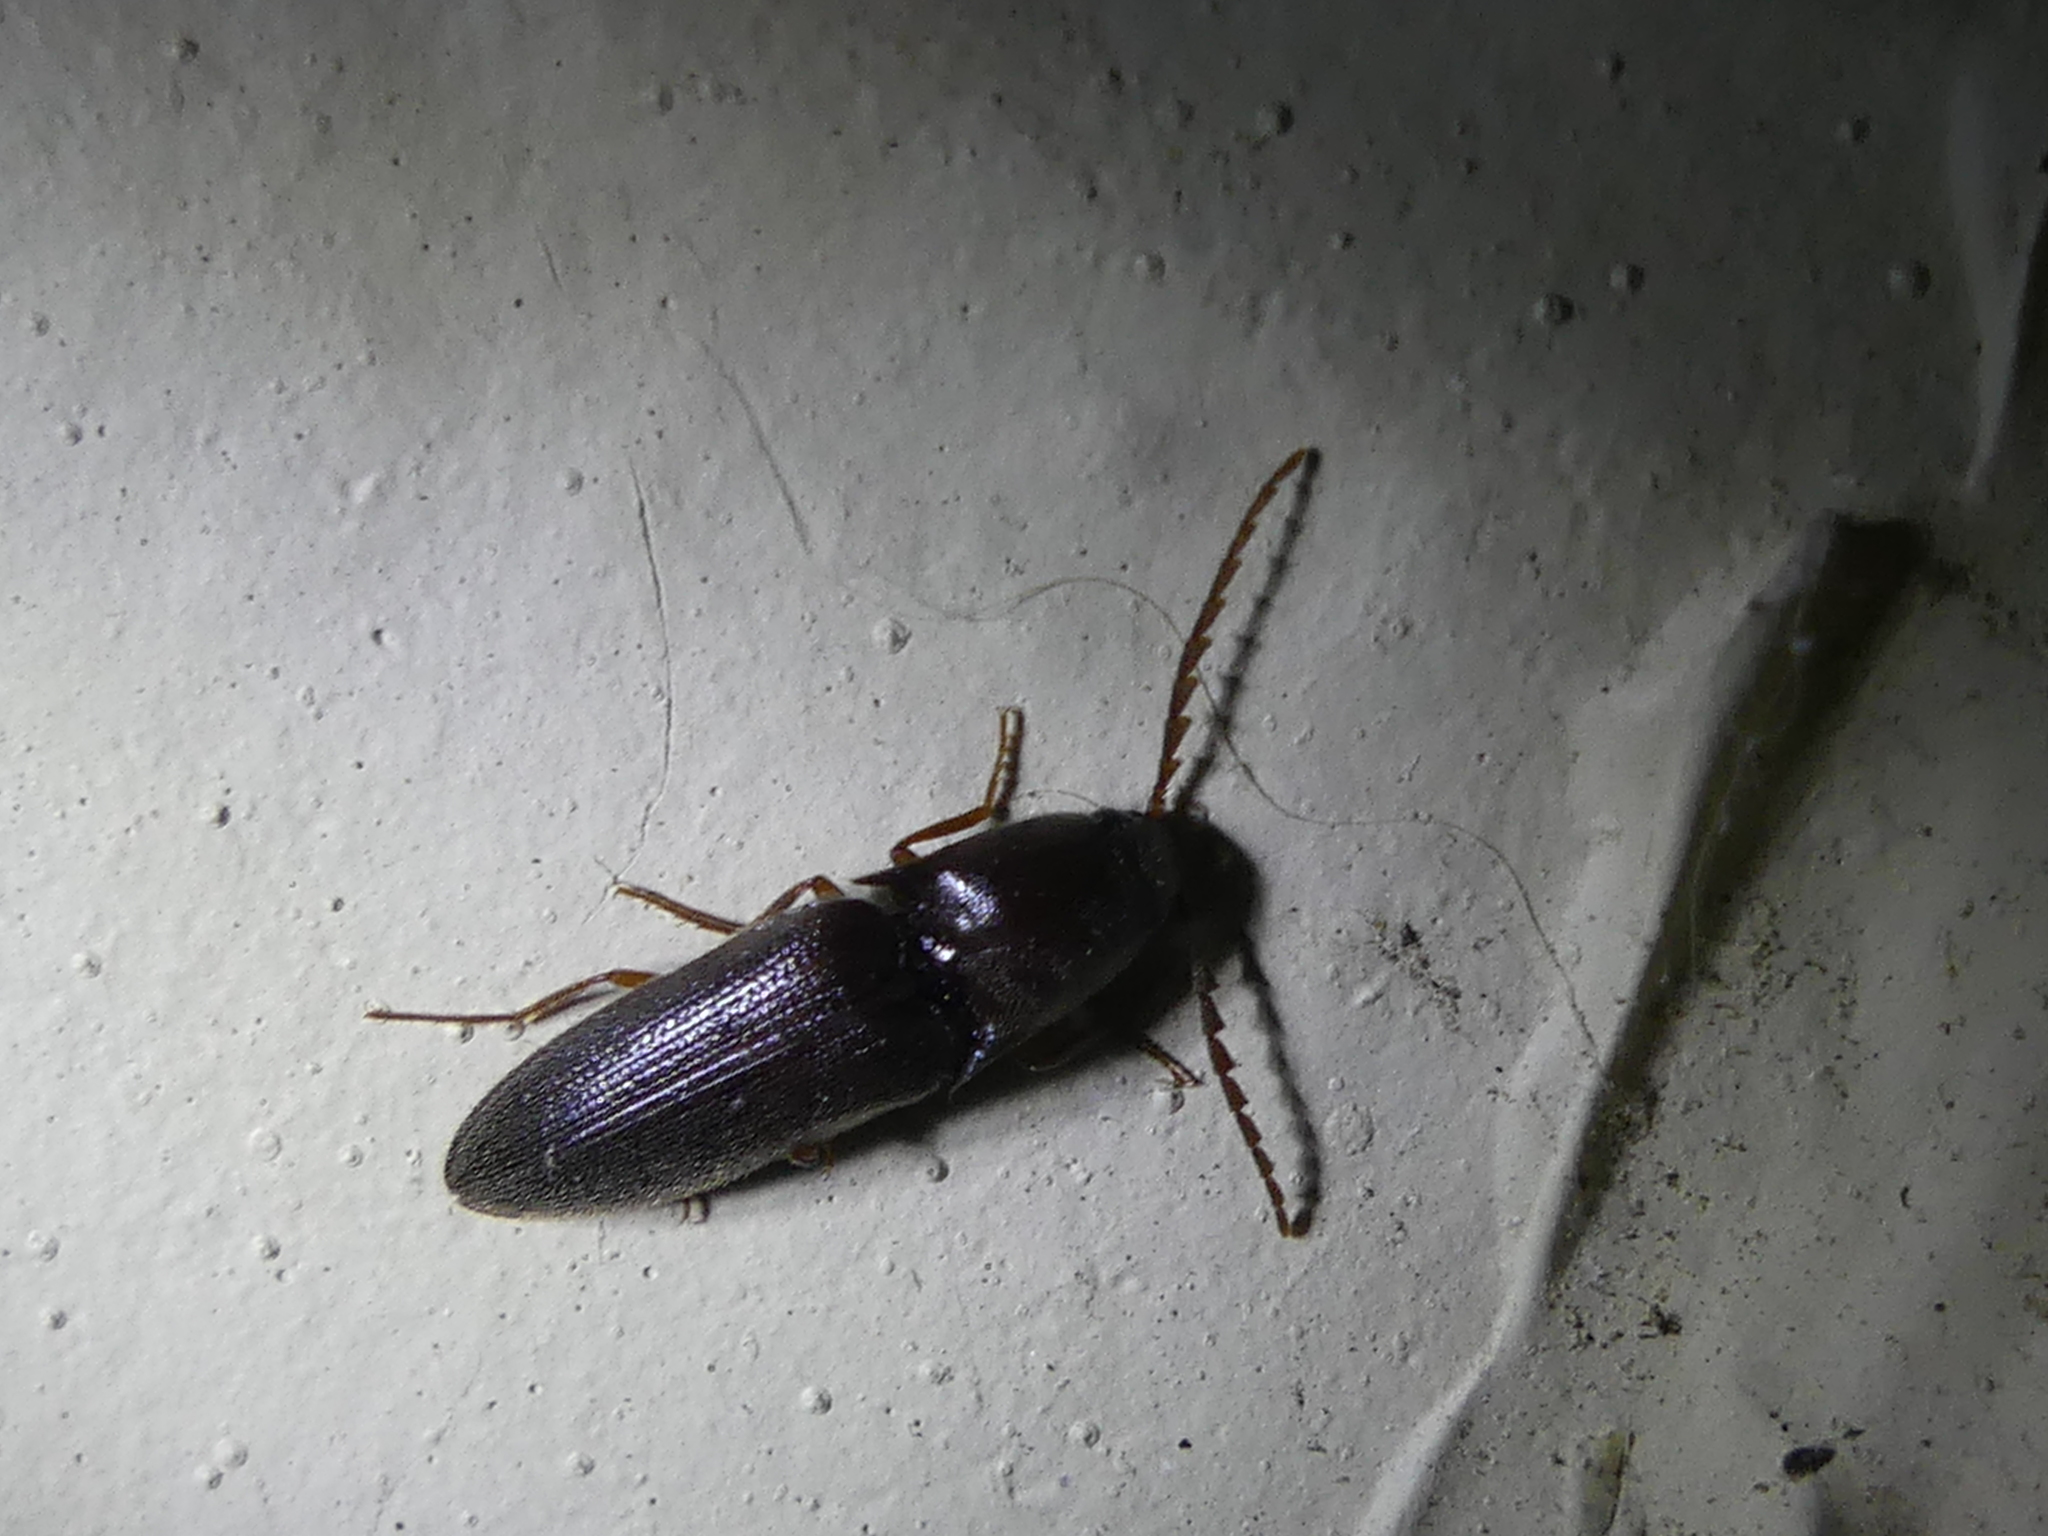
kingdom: Animalia
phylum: Arthropoda
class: Insecta
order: Coleoptera
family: Elateridae
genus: Megapenthes
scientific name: Megapenthes insignis
